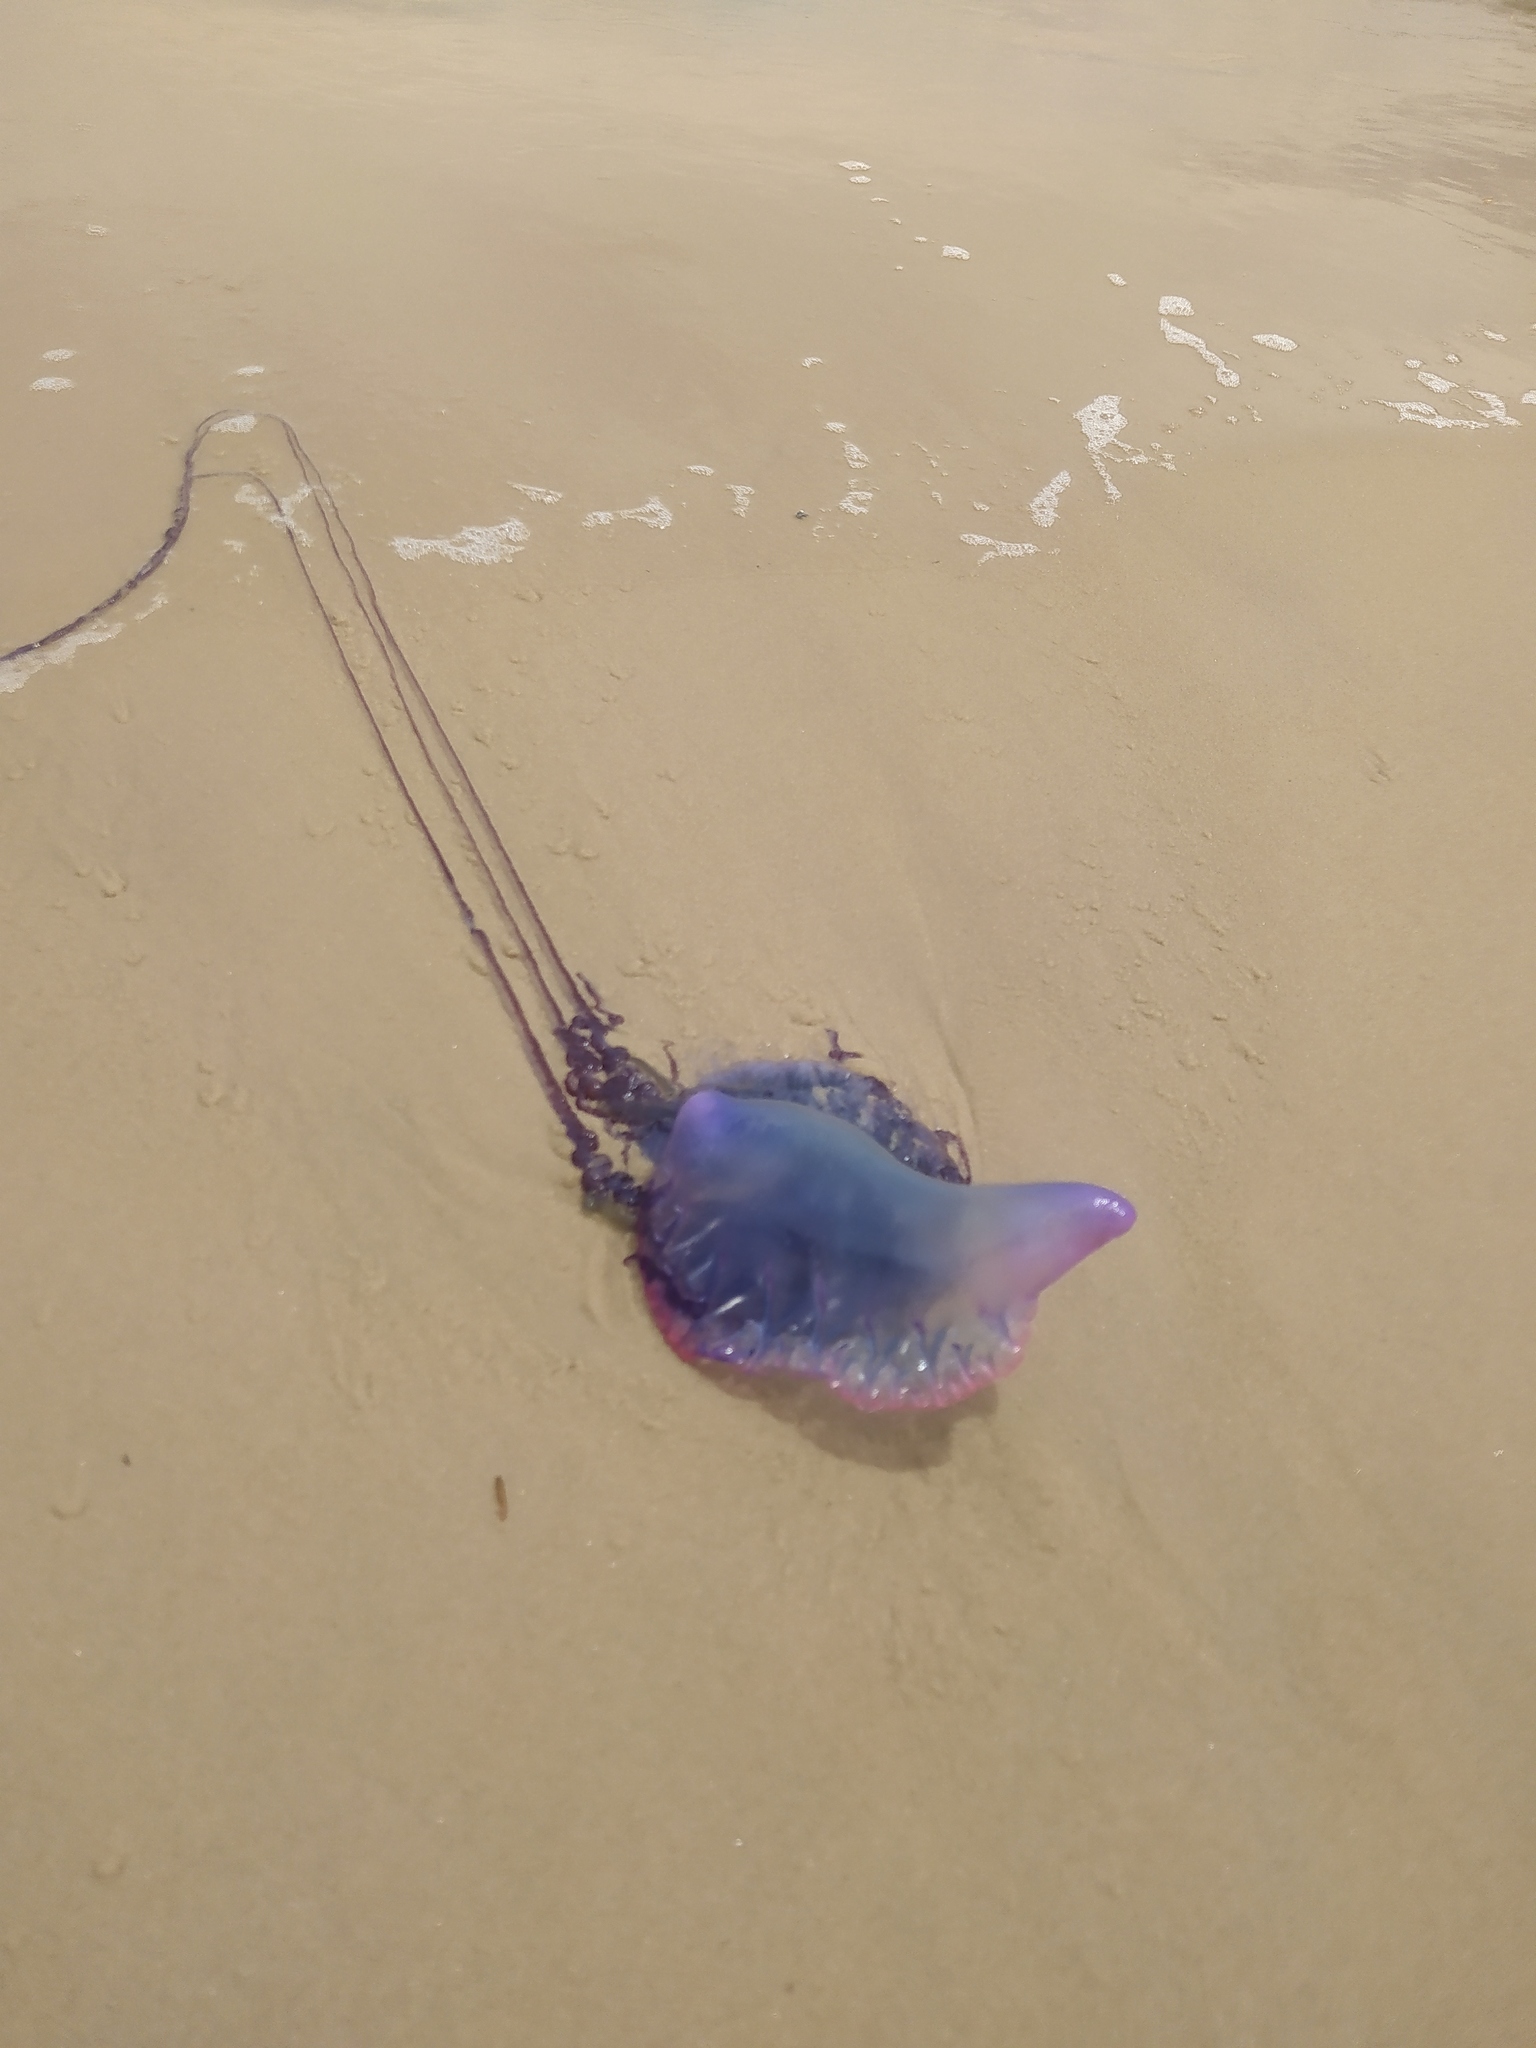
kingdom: Animalia
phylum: Cnidaria
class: Hydrozoa
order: Siphonophorae
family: Physaliidae
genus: Physalia
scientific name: Physalia physalis
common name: Portuguese man-of-war
